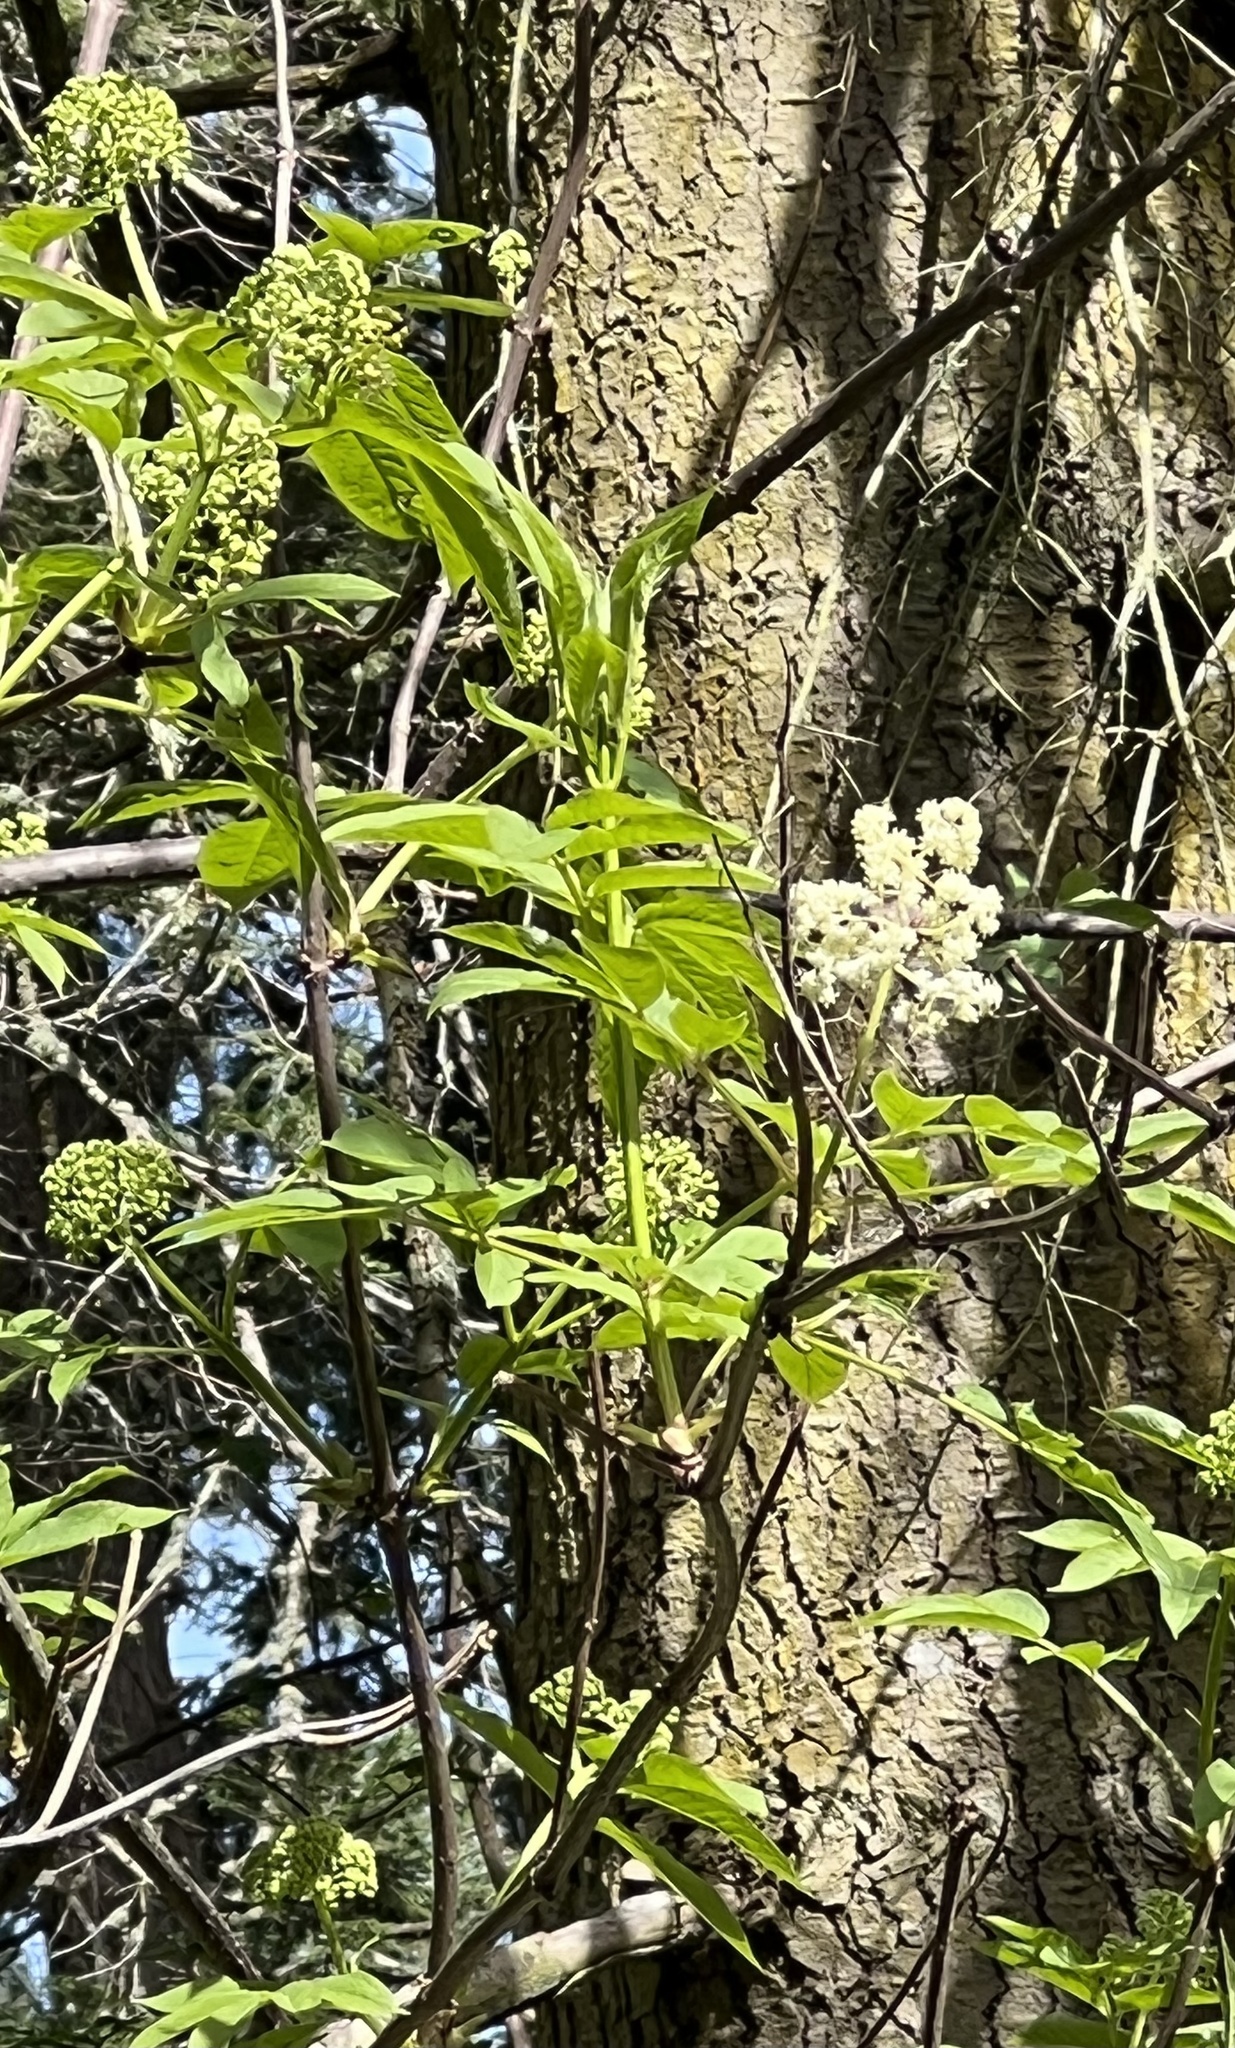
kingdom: Plantae
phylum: Tracheophyta
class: Magnoliopsida
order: Dipsacales
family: Viburnaceae
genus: Sambucus
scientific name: Sambucus racemosa
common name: Red-berried elder
